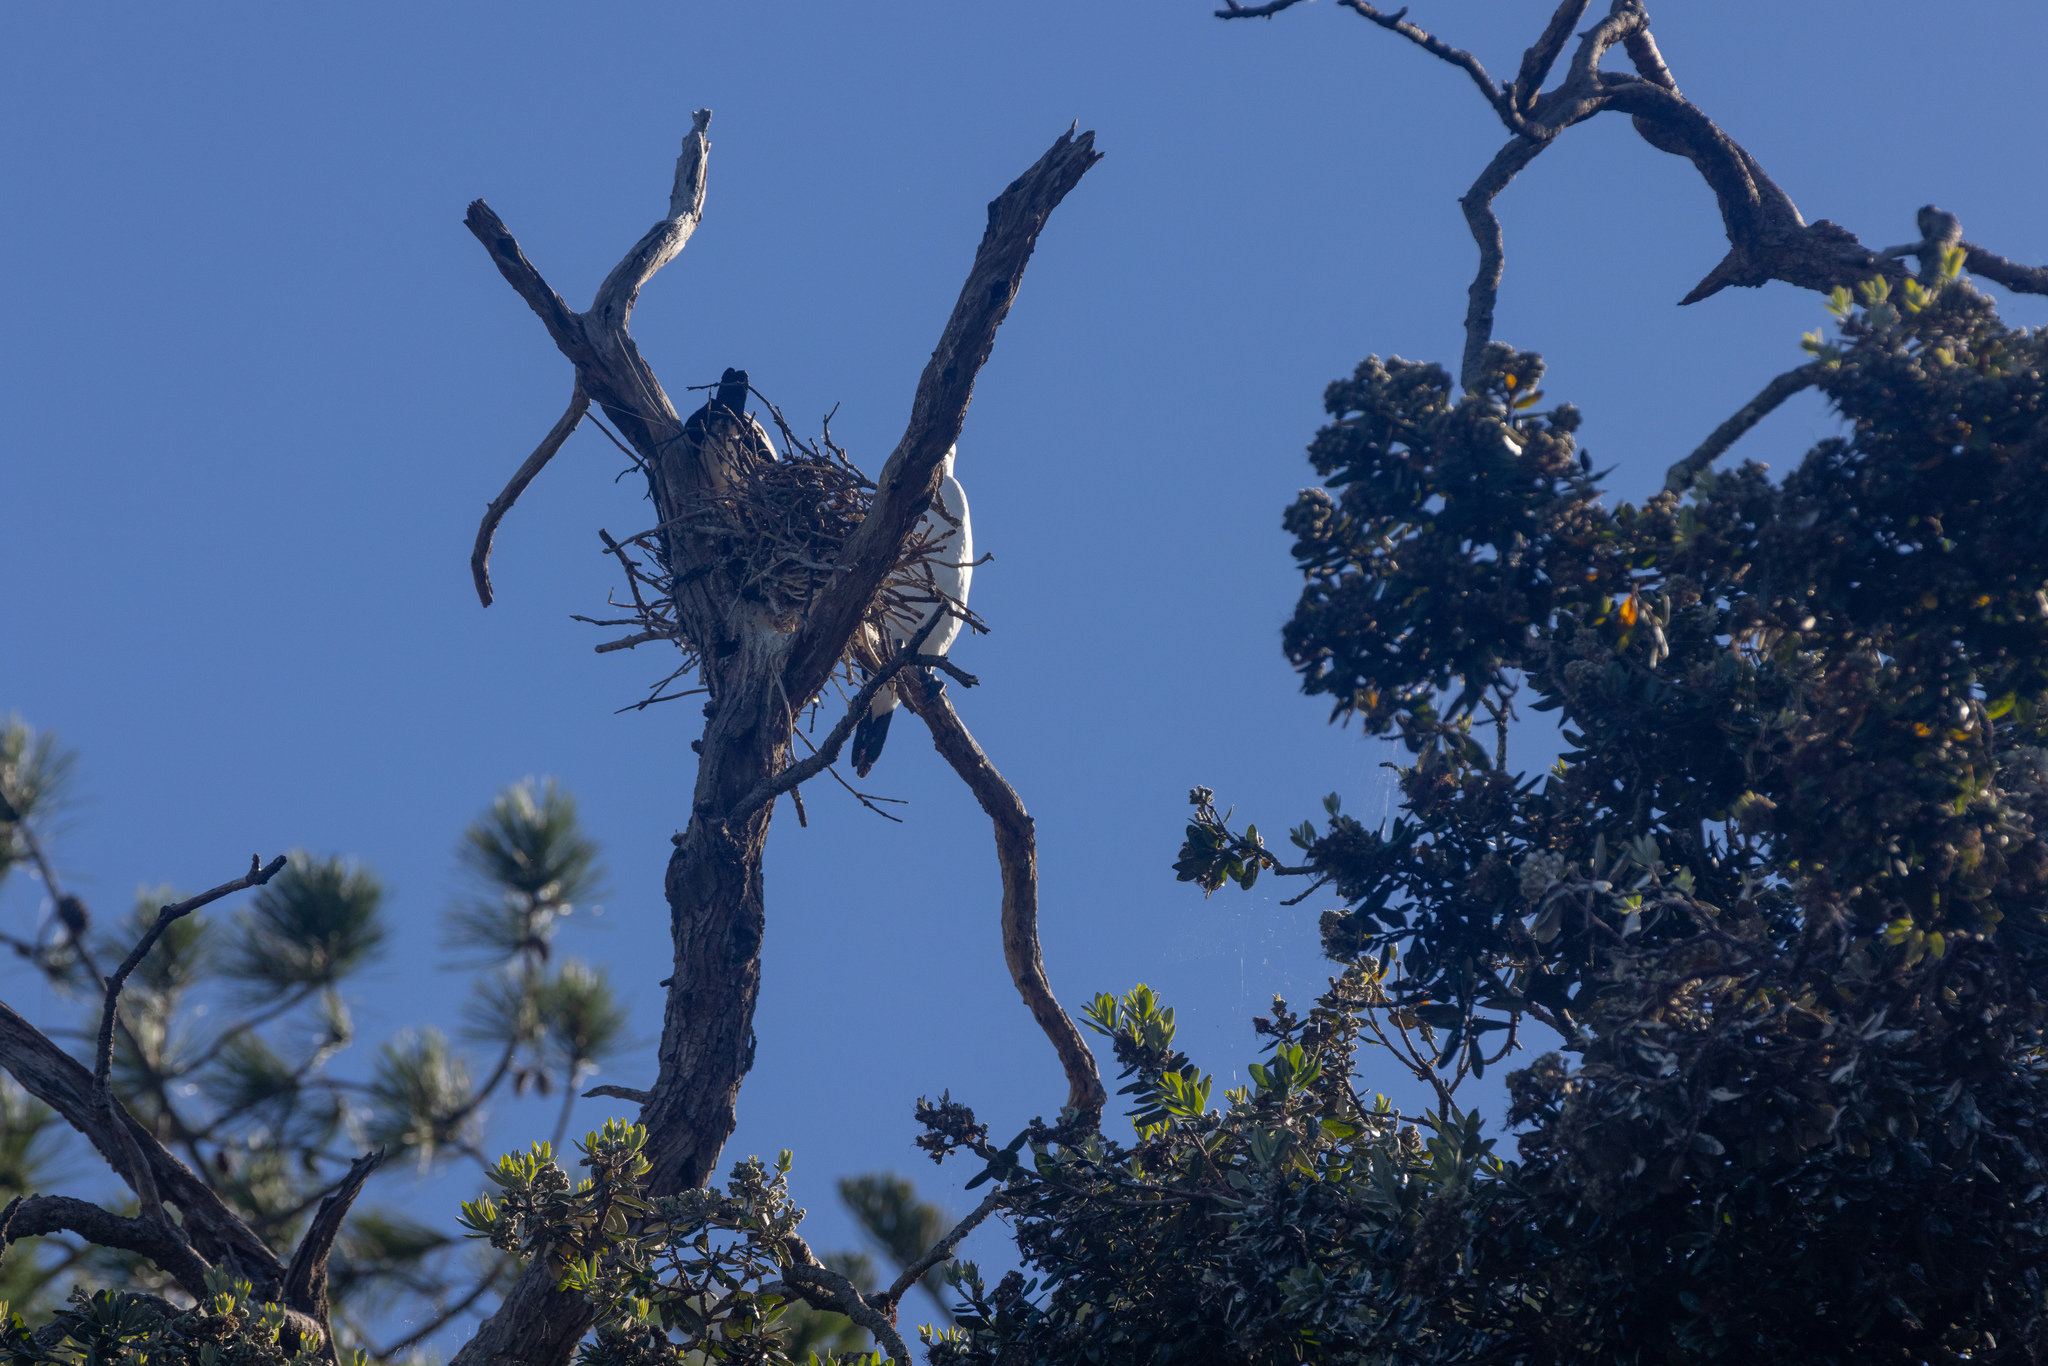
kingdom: Animalia
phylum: Chordata
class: Aves
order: Suliformes
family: Phalacrocoracidae
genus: Phalacrocorax
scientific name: Phalacrocorax varius
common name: Pied cormorant
